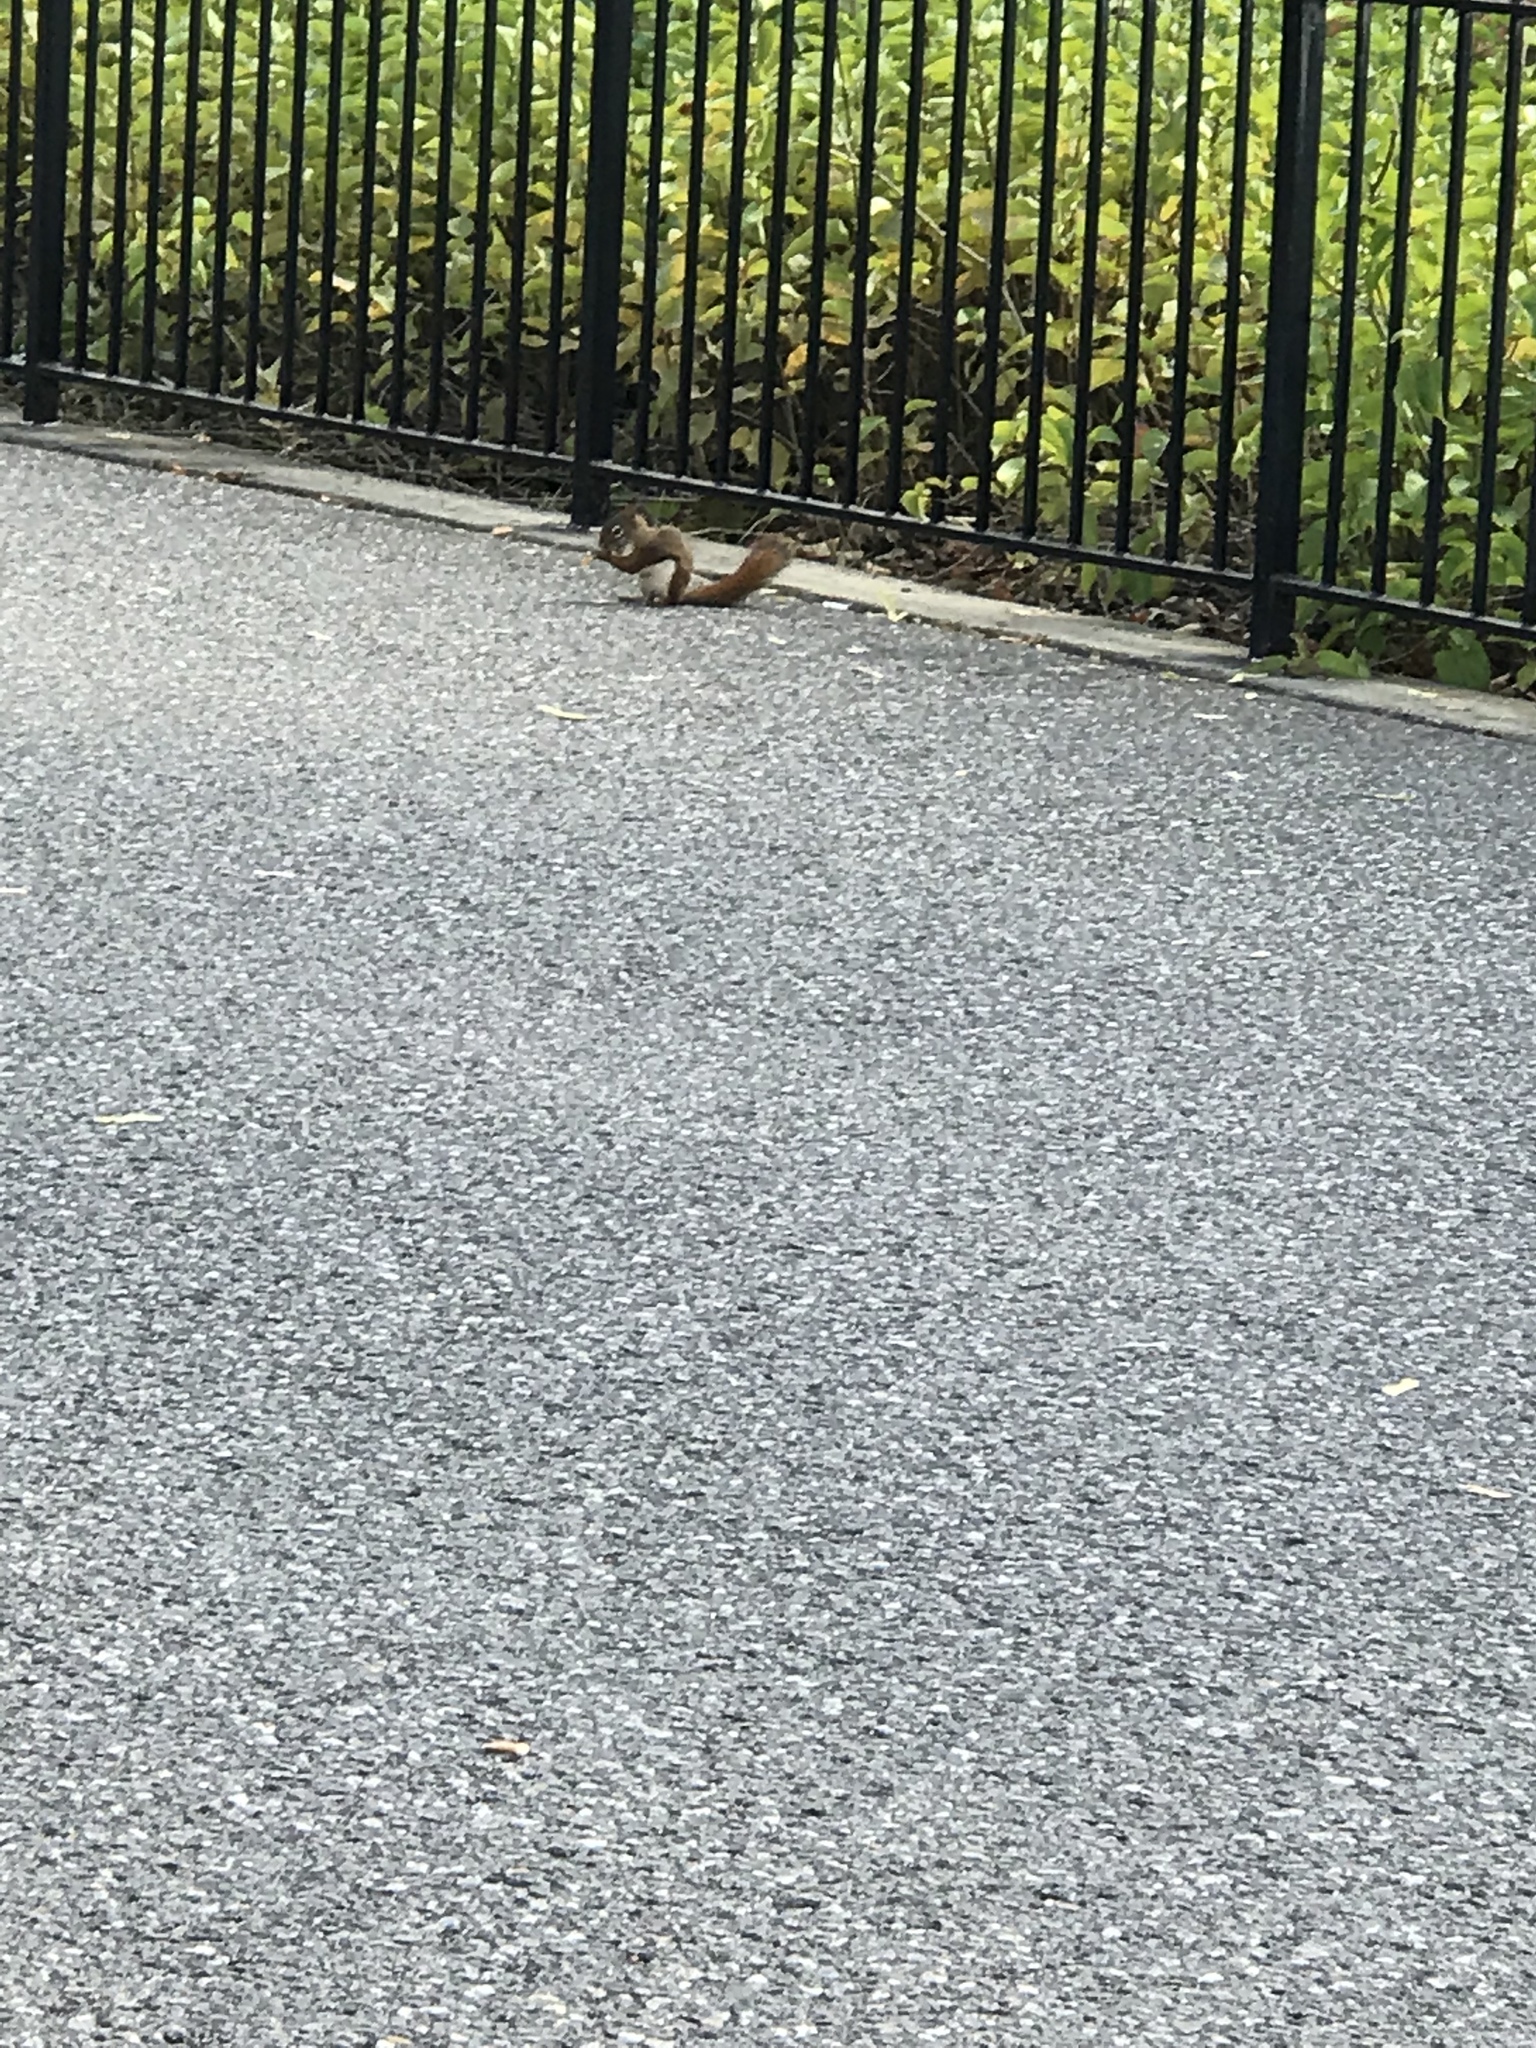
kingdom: Animalia
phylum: Chordata
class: Mammalia
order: Rodentia
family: Sciuridae
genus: Tamiasciurus
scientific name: Tamiasciurus hudsonicus
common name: Red squirrel
